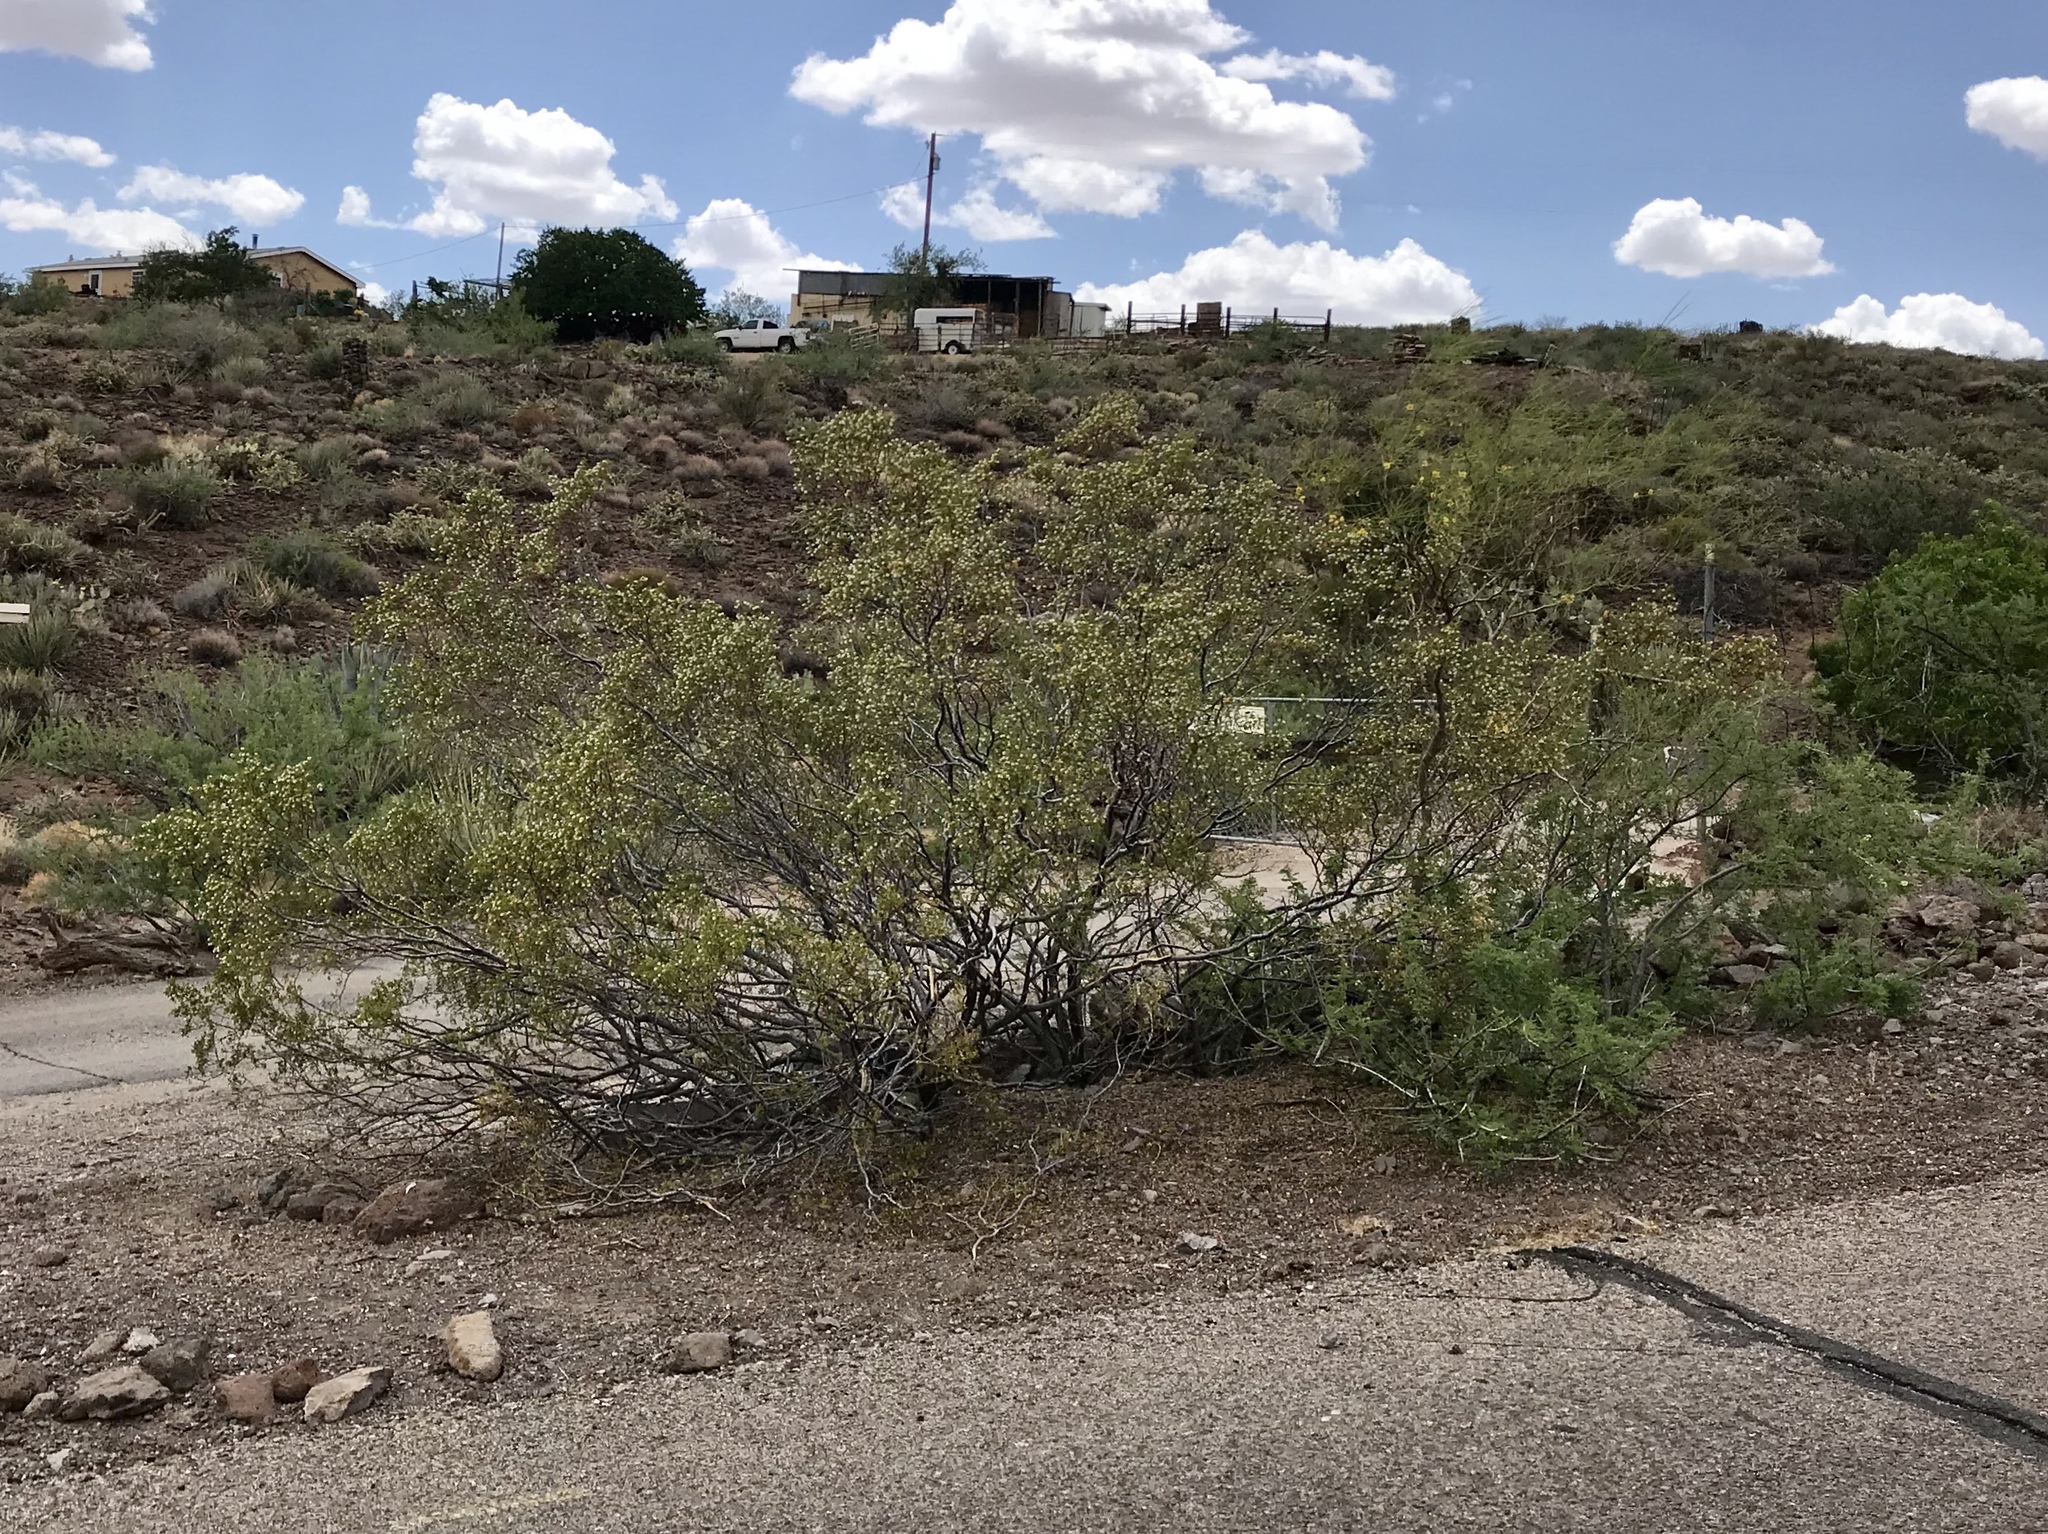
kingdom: Plantae
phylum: Tracheophyta
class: Magnoliopsida
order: Zygophyllales
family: Zygophyllaceae
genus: Larrea
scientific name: Larrea tridentata
